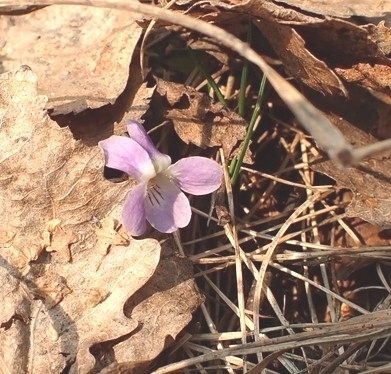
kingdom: Plantae
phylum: Tracheophyta
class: Magnoliopsida
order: Malpighiales
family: Violaceae
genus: Viola
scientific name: Viola hirta
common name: Hairy violet
